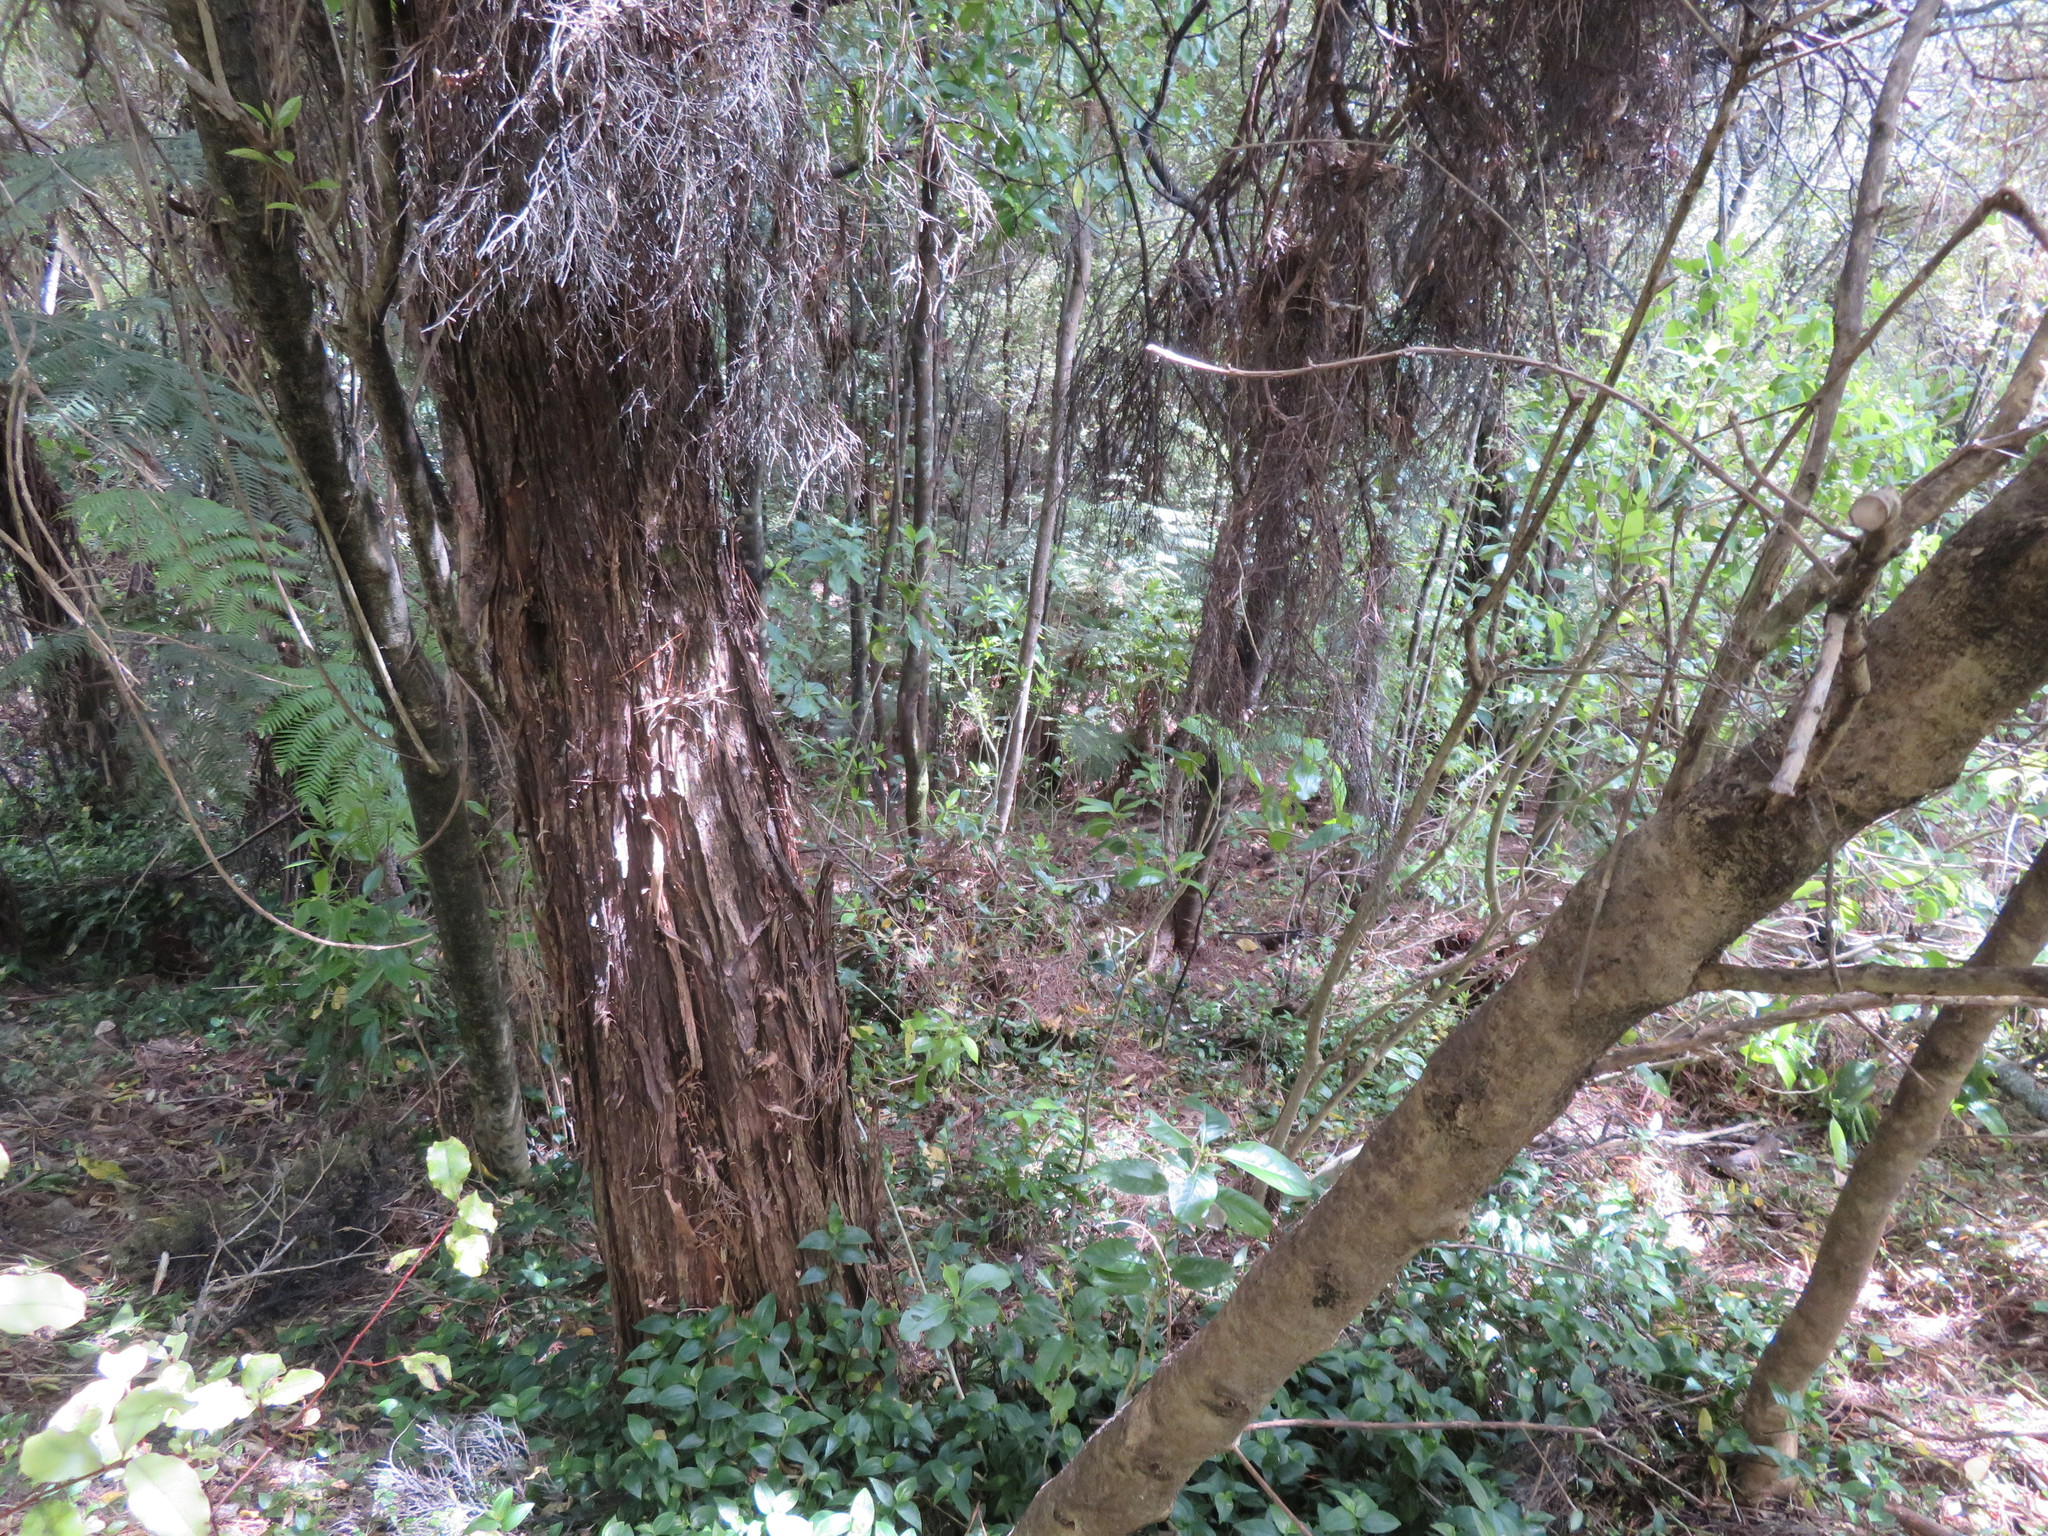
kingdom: Plantae
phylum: Tracheophyta
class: Liliopsida
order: Commelinales
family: Commelinaceae
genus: Tradescantia
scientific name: Tradescantia fluminensis
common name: Wandering-jew
